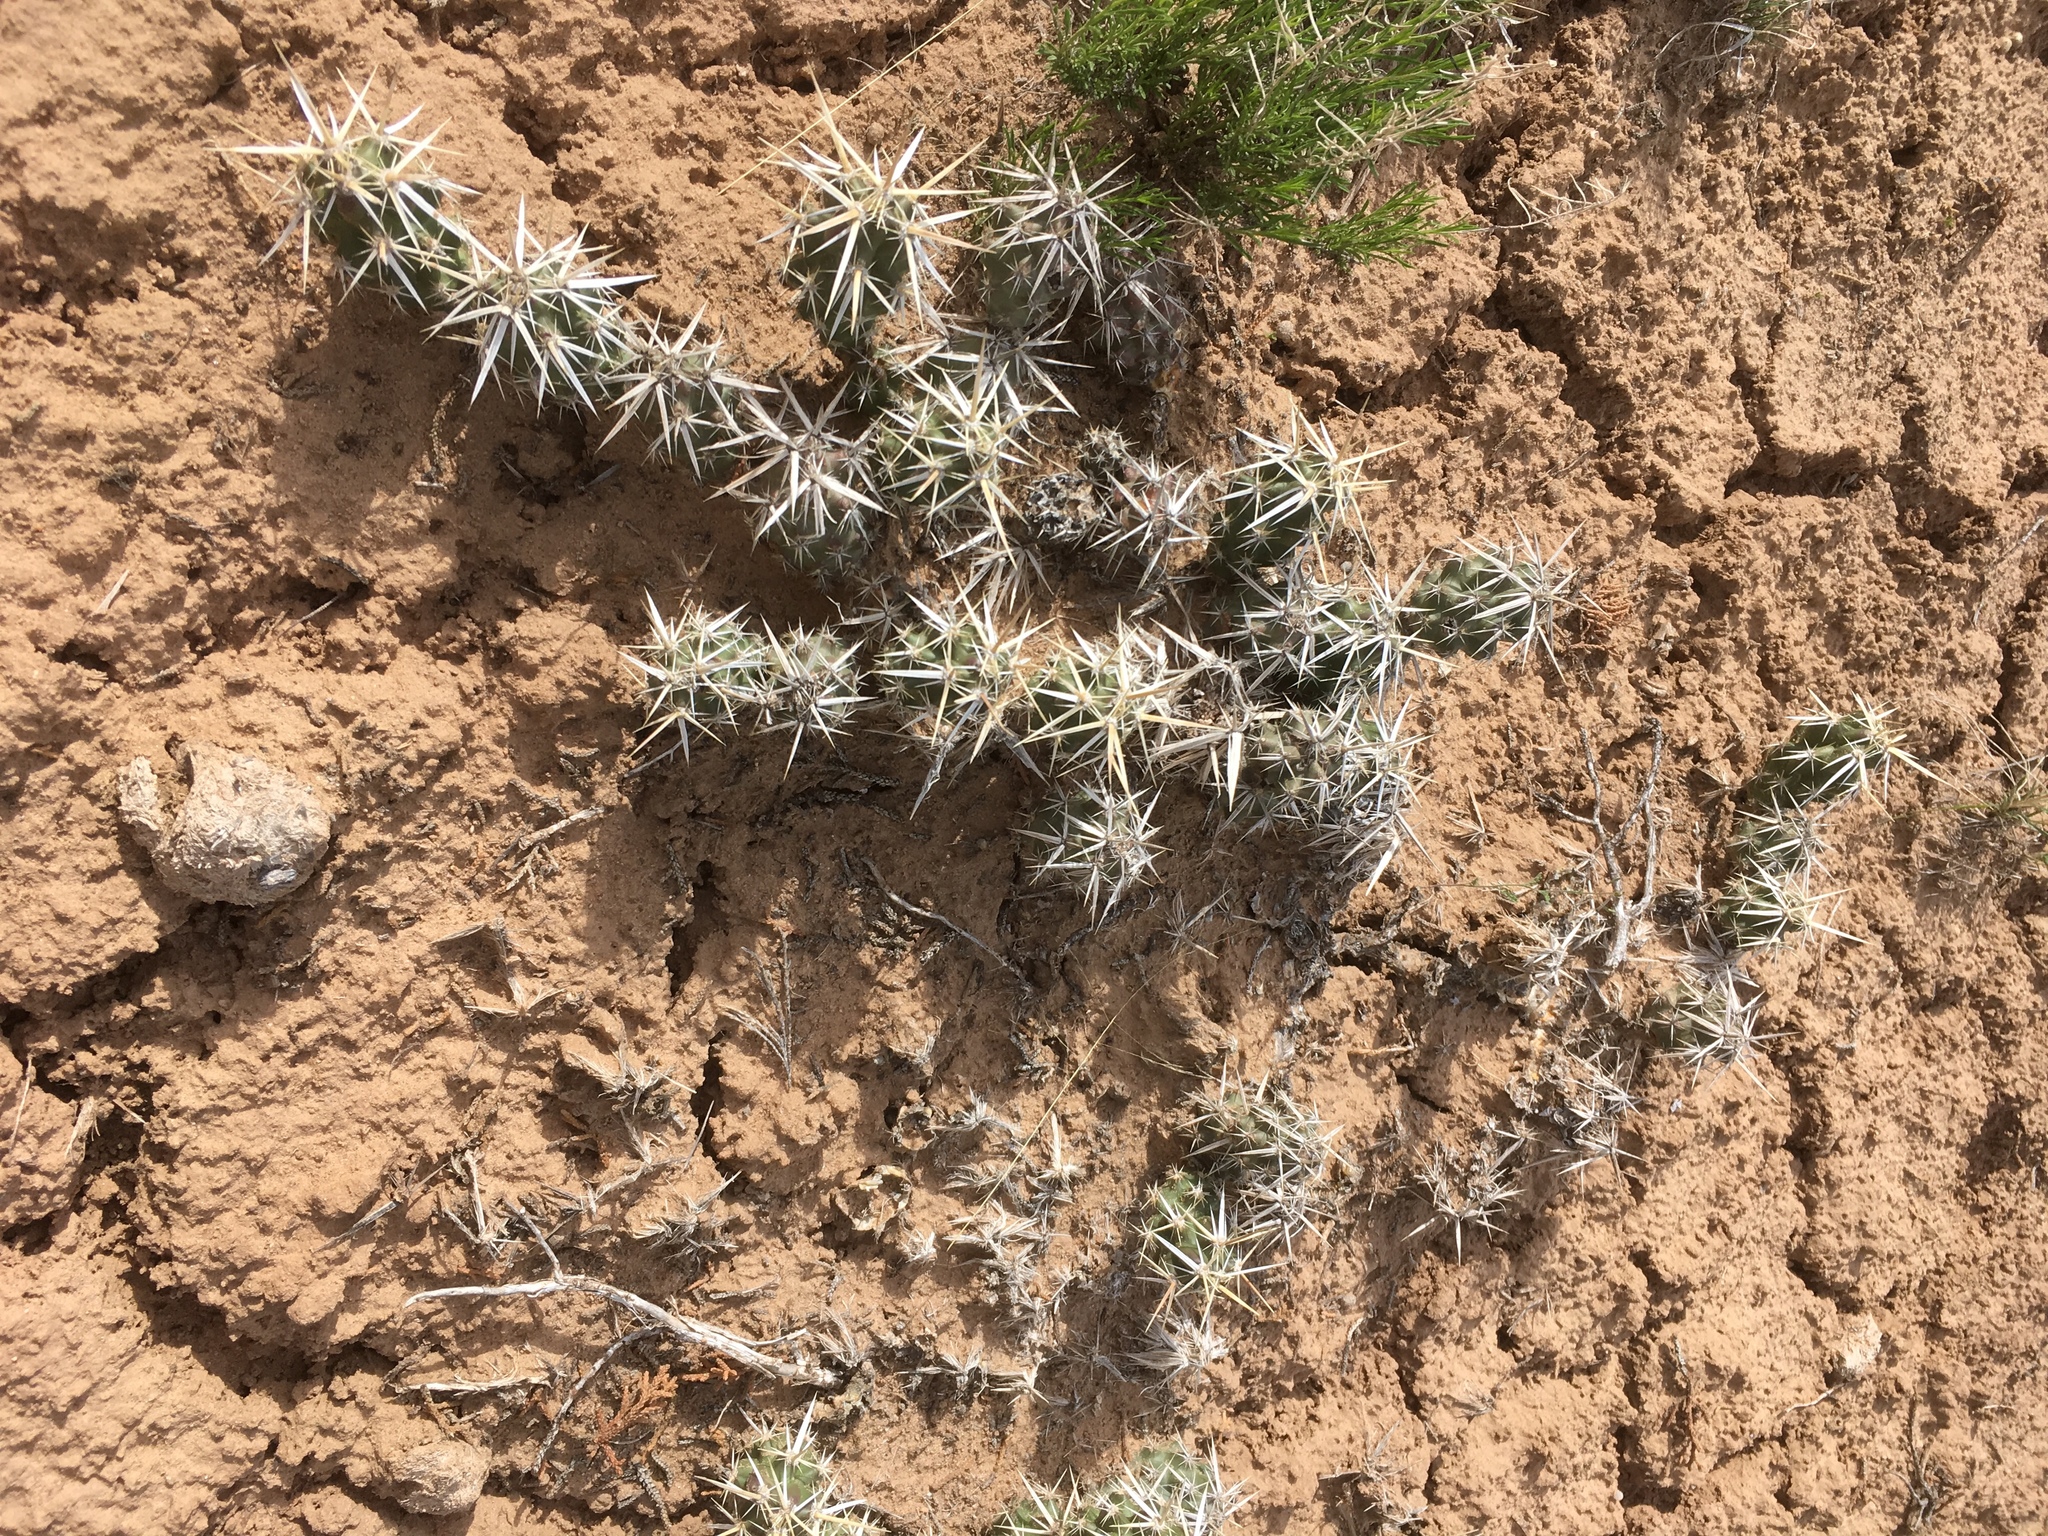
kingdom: Plantae
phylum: Tracheophyta
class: Magnoliopsida
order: Caryophyllales
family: Cactaceae
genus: Grusonia
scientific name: Grusonia clavata
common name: Club cholla
